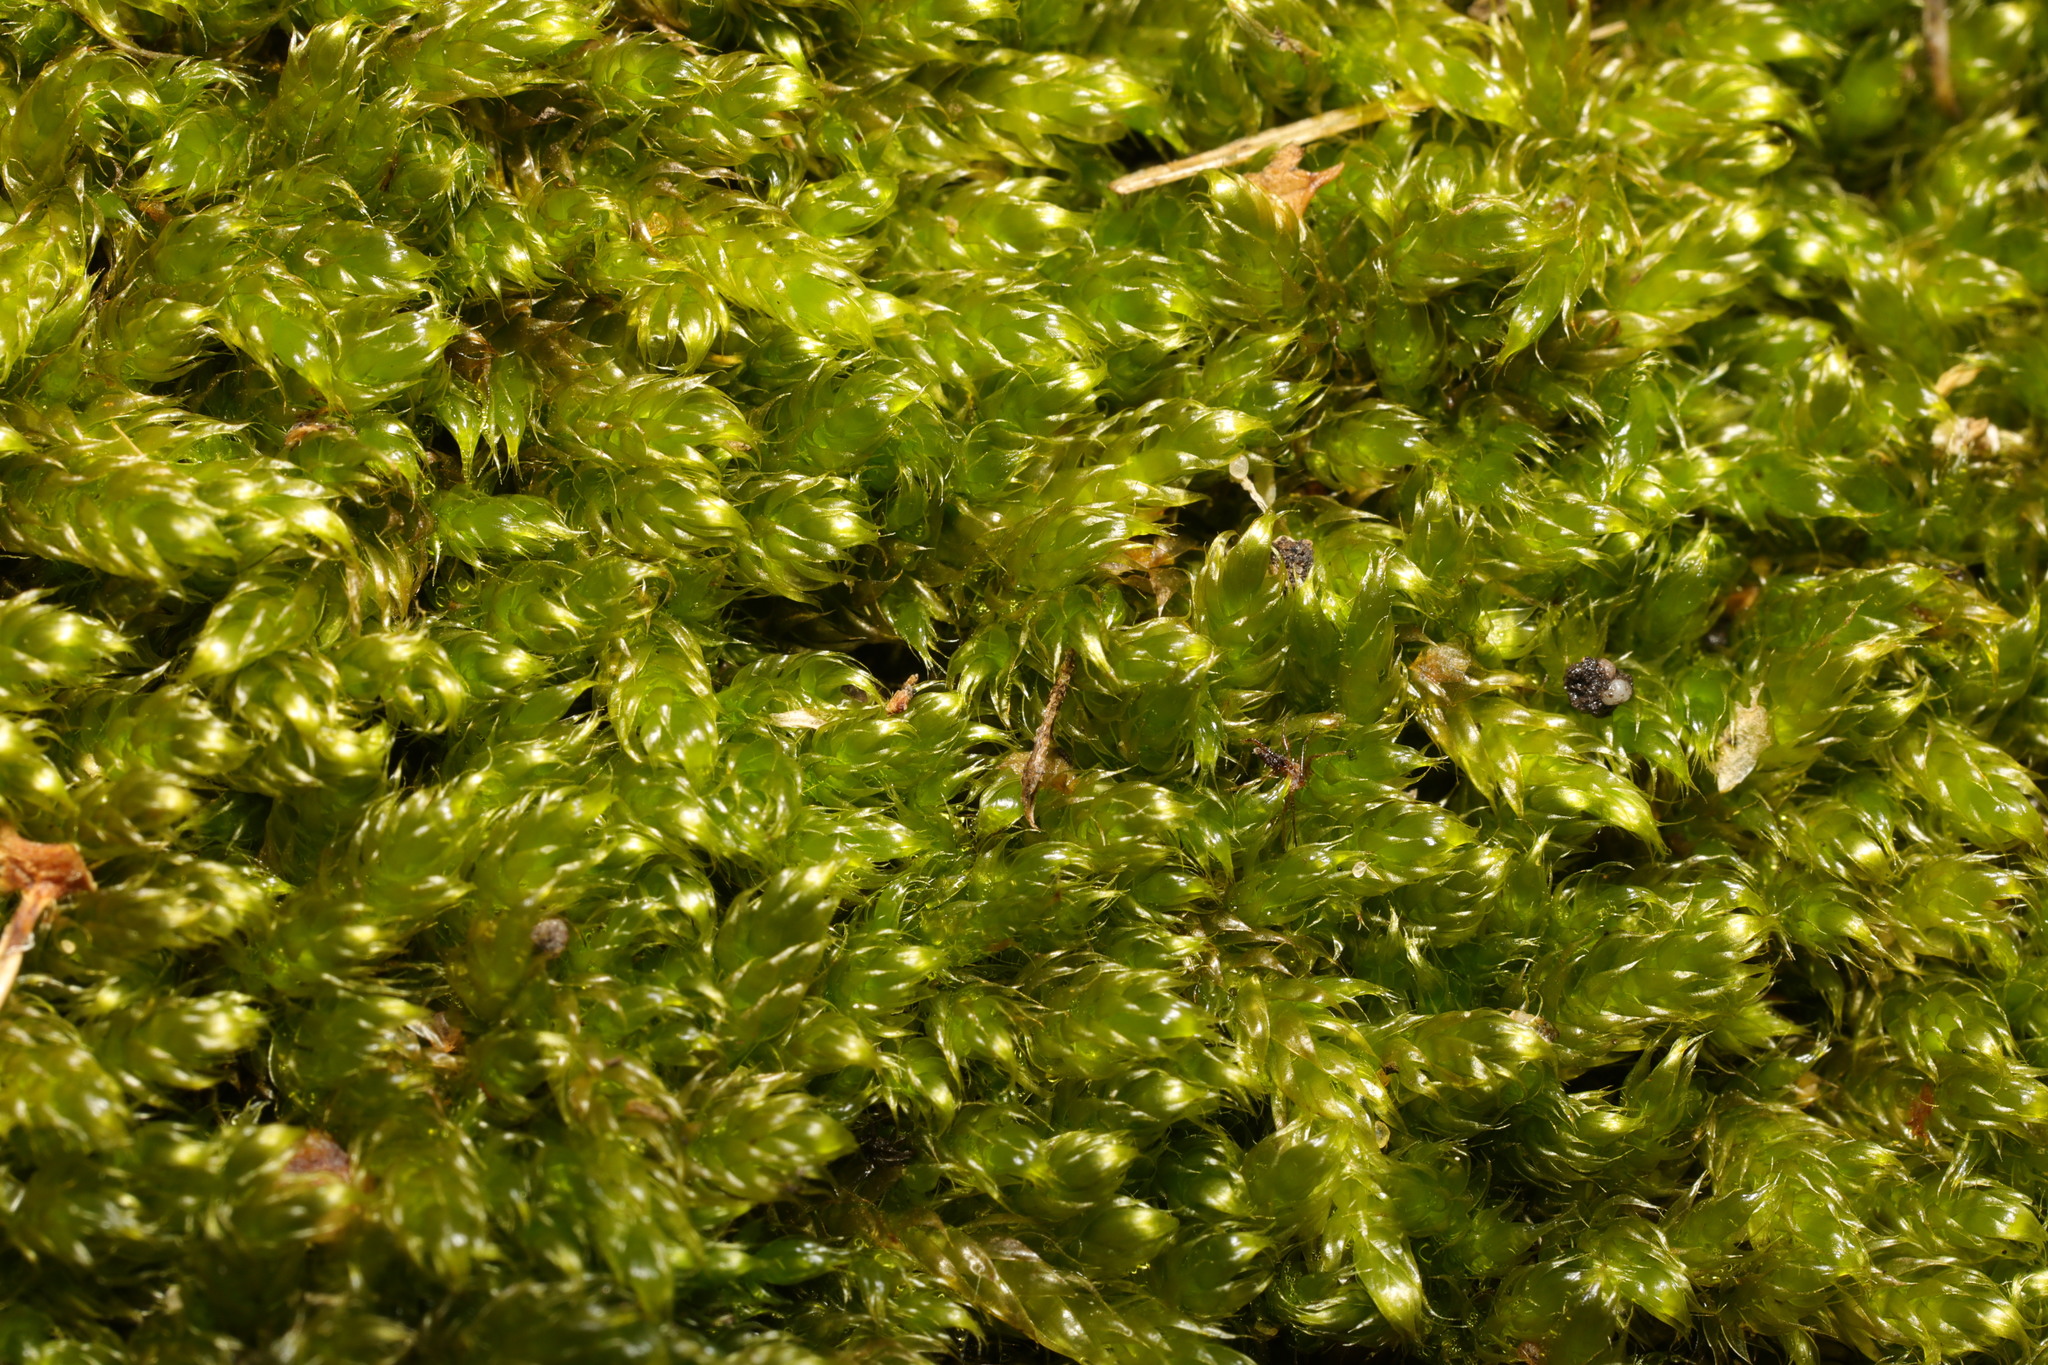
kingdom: Plantae
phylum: Bryophyta
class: Bryopsida
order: Hypnales
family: Hypnaceae
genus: Hypnum
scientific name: Hypnum cupressiforme
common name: Cypress-leaved plait-moss
